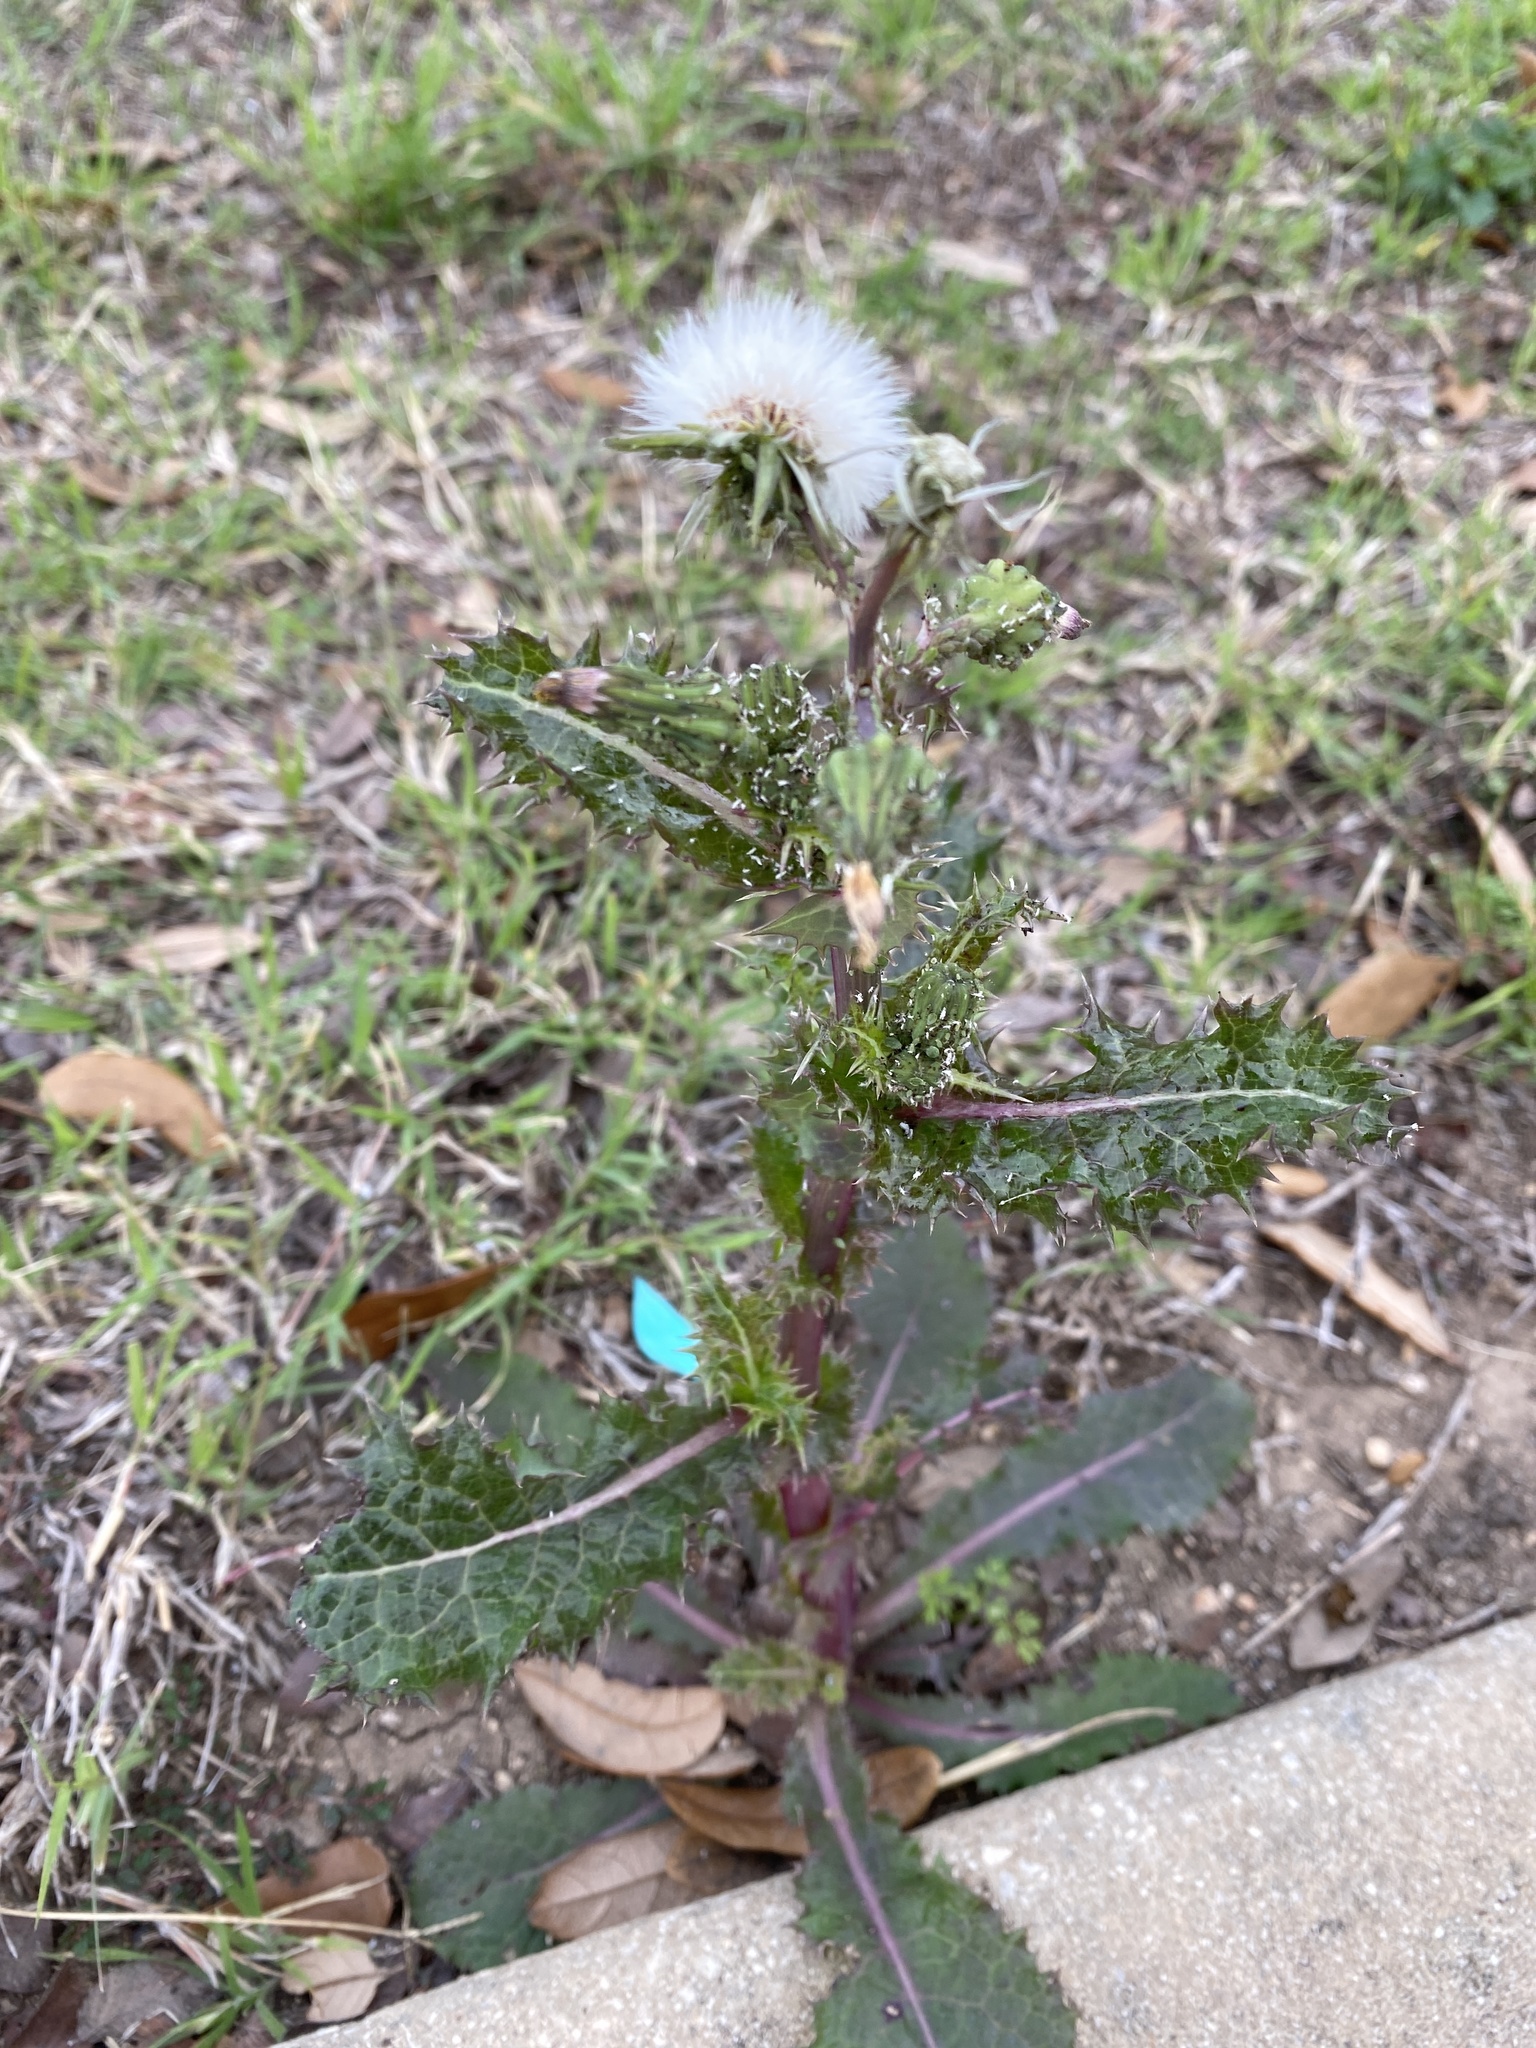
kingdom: Plantae
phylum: Tracheophyta
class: Magnoliopsida
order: Asterales
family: Asteraceae
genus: Sonchus
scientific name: Sonchus asper
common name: Prickly sow-thistle
